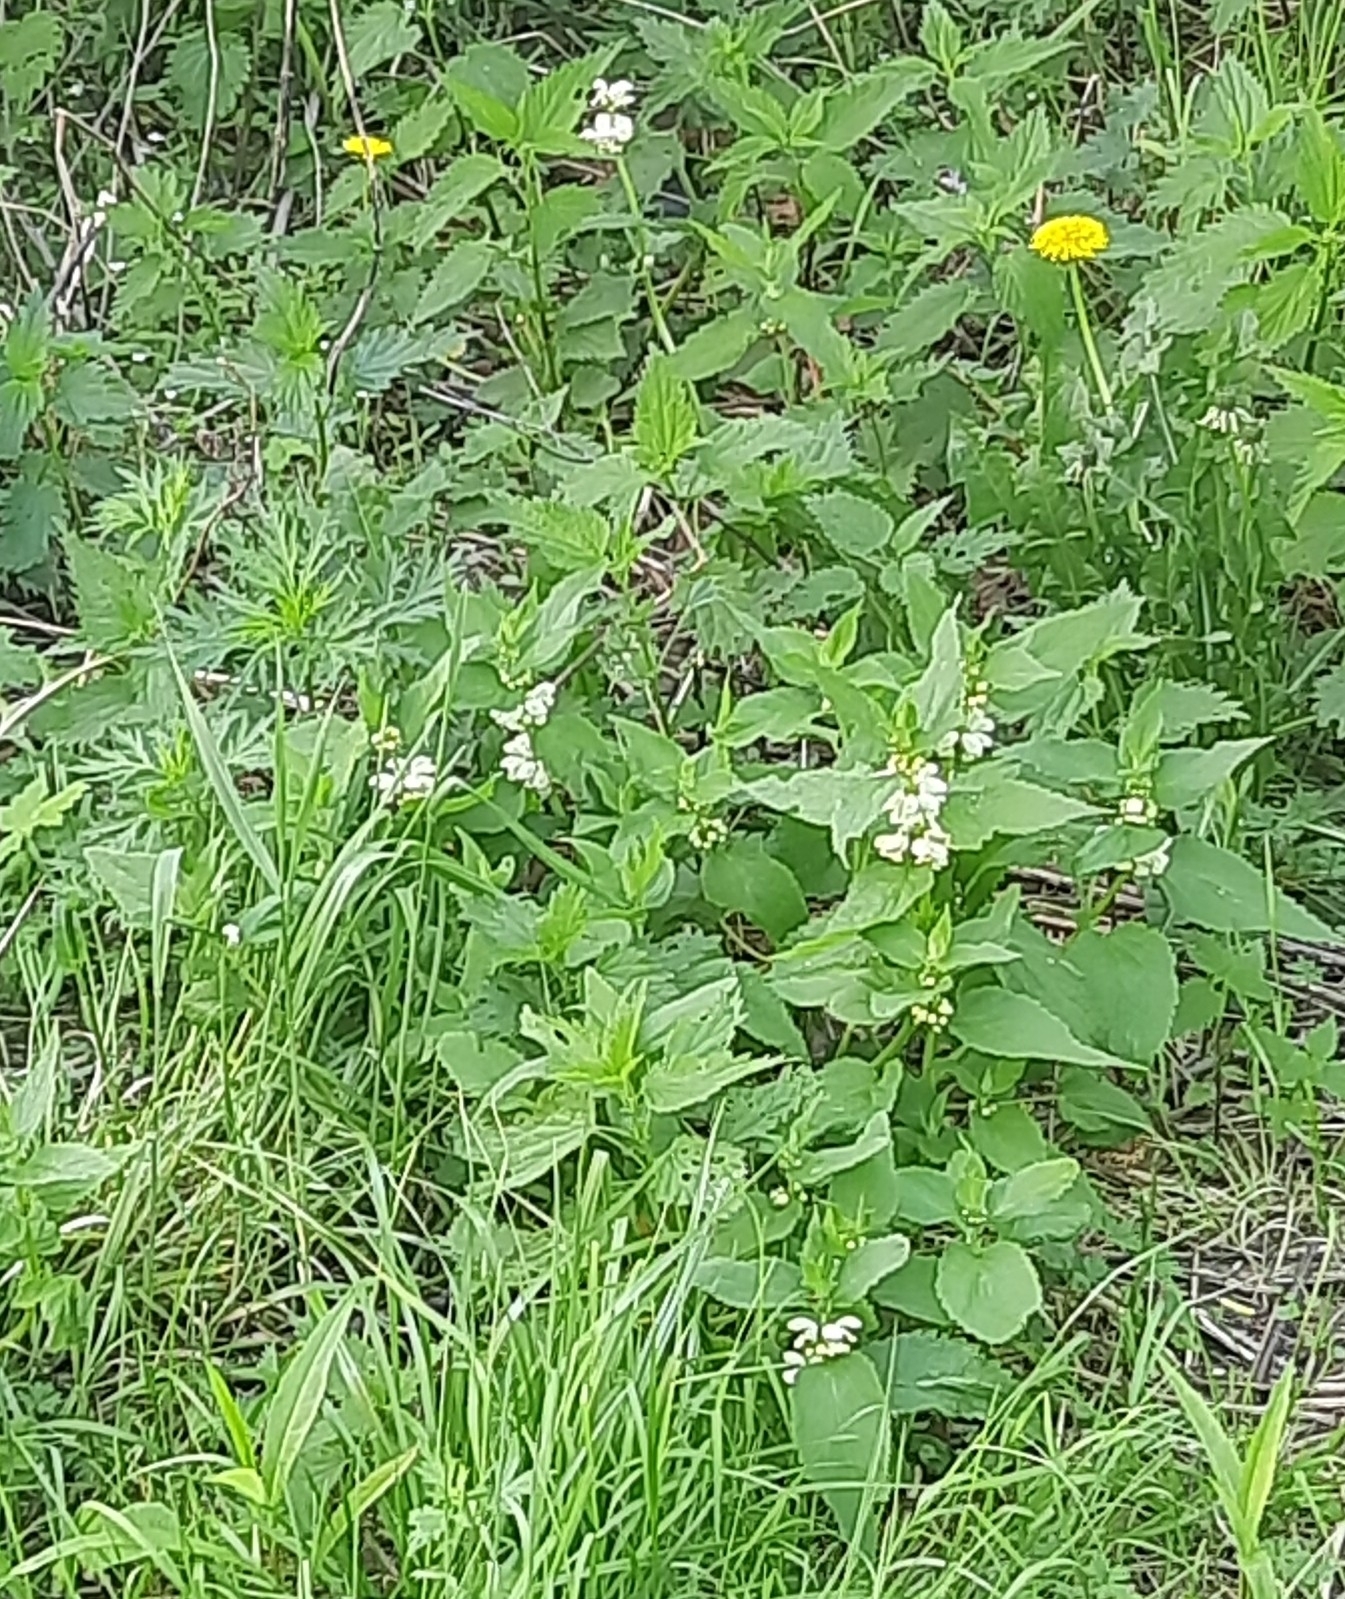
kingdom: Plantae
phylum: Tracheophyta
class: Magnoliopsida
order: Lamiales
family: Lamiaceae
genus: Lamium
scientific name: Lamium album
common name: White dead-nettle
